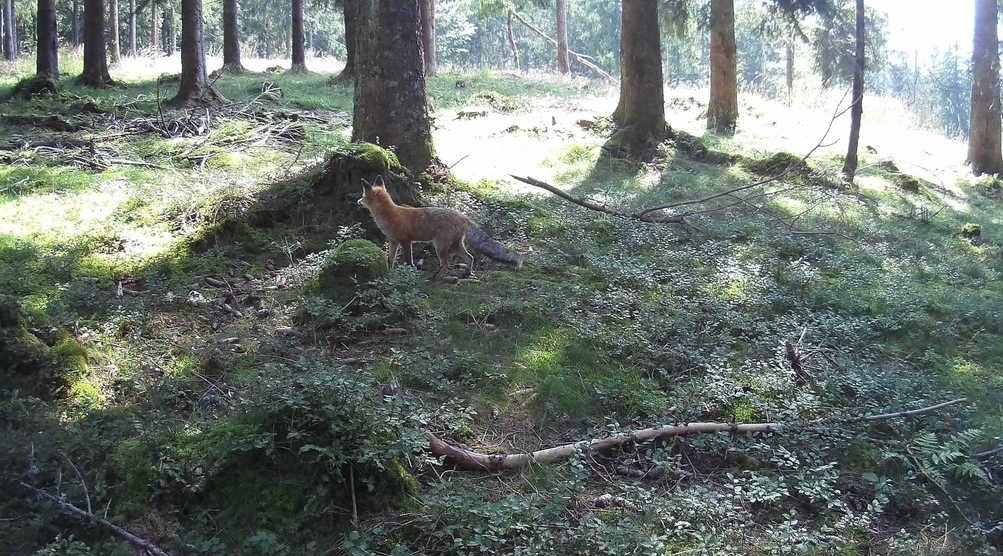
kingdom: Animalia
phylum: Chordata
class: Mammalia
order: Carnivora
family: Canidae
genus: Vulpes
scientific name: Vulpes vulpes
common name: Red fox
